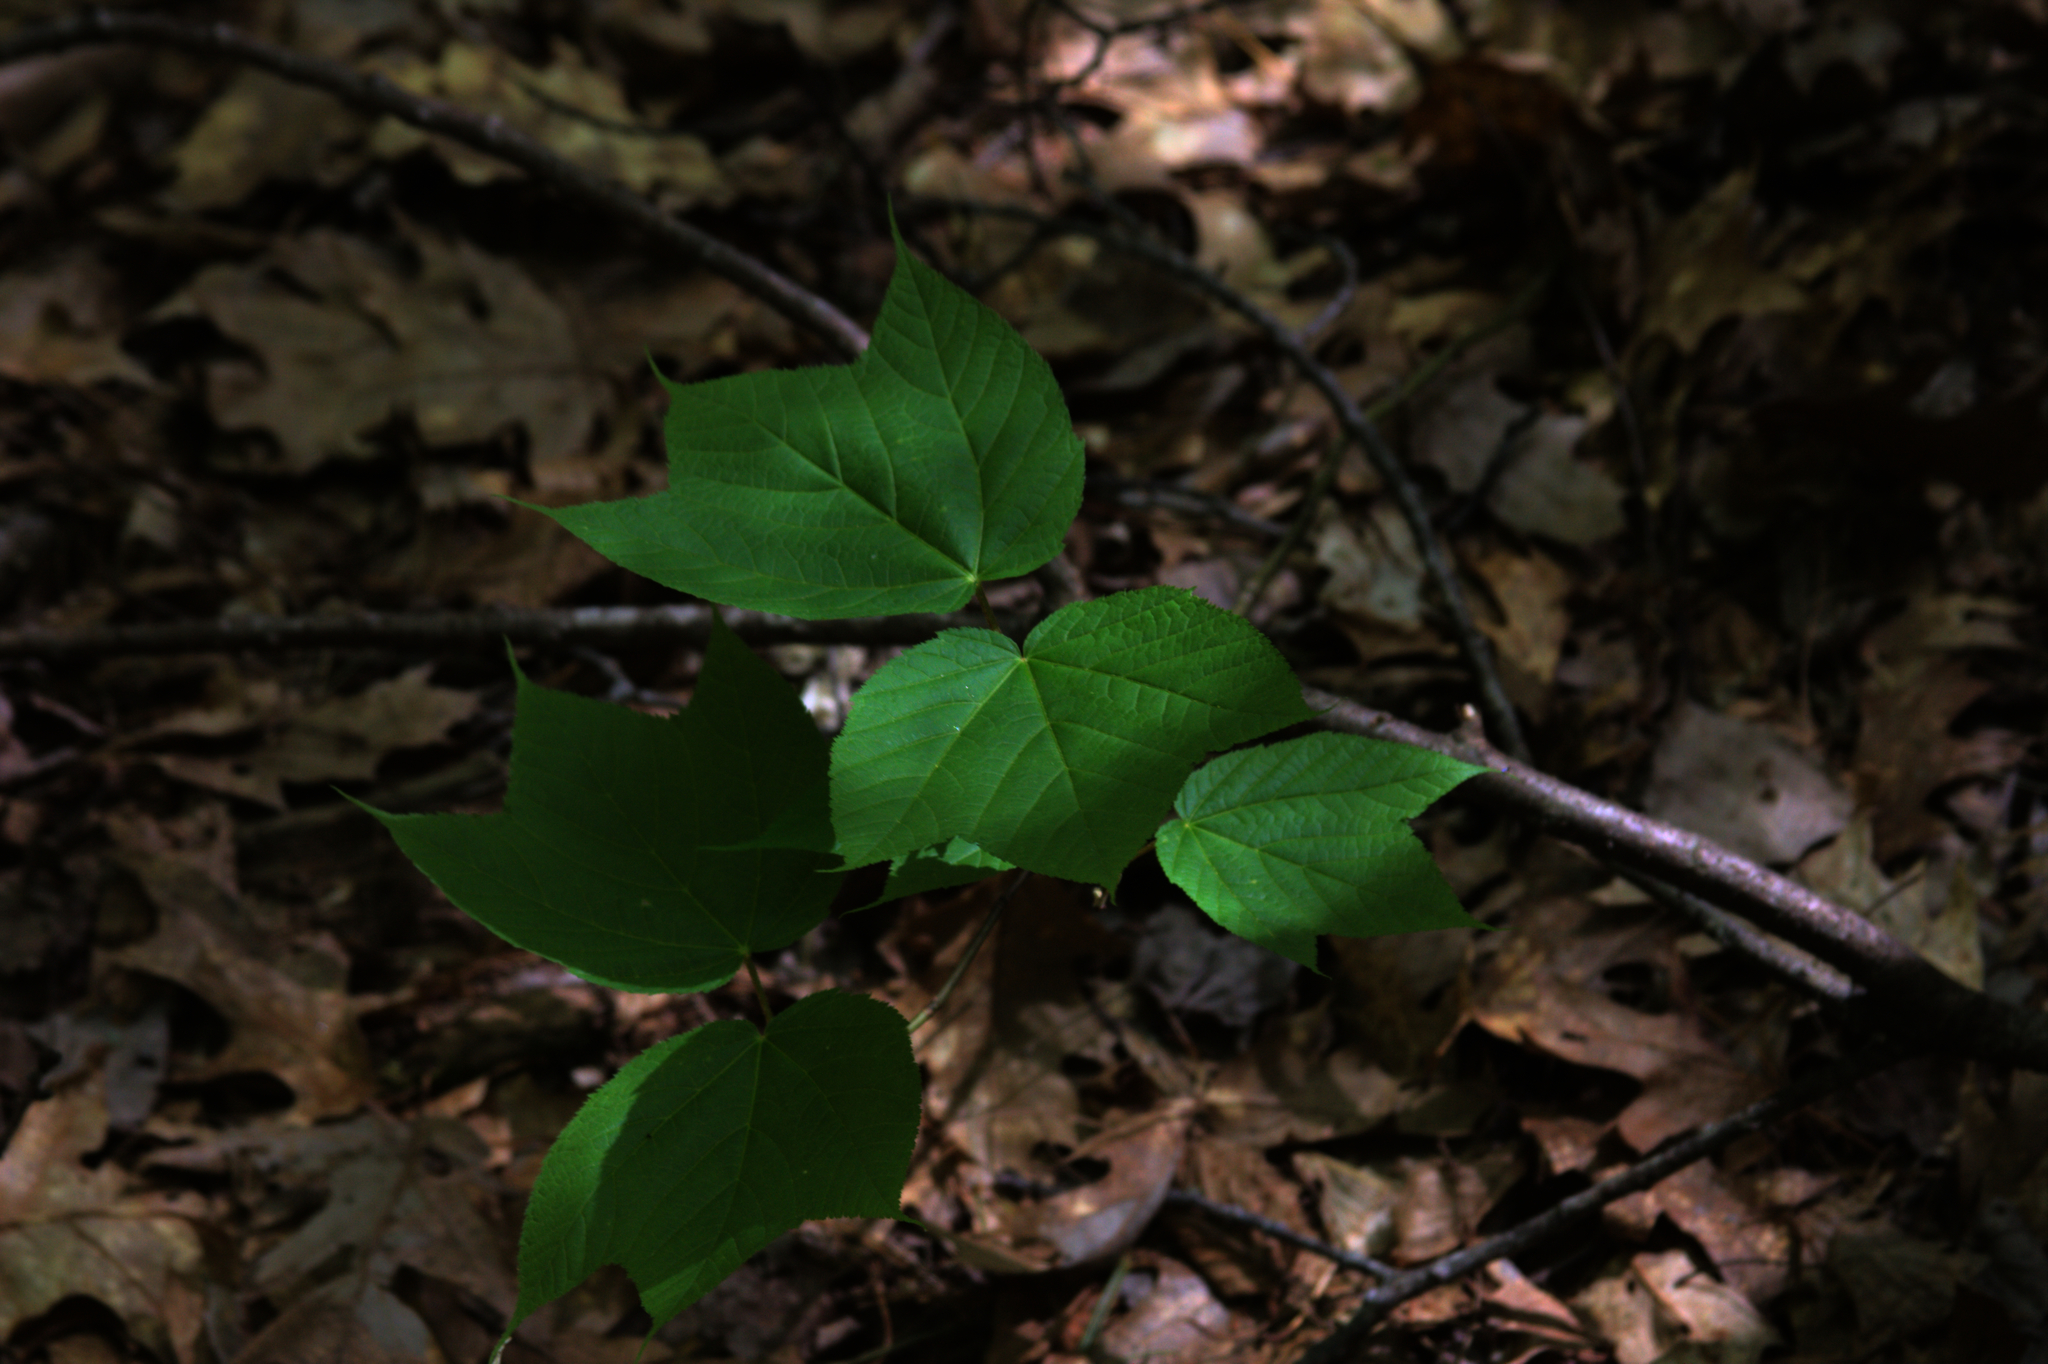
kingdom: Plantae
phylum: Tracheophyta
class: Magnoliopsida
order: Sapindales
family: Sapindaceae
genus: Acer
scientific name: Acer pensylvanicum
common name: Moosewood
